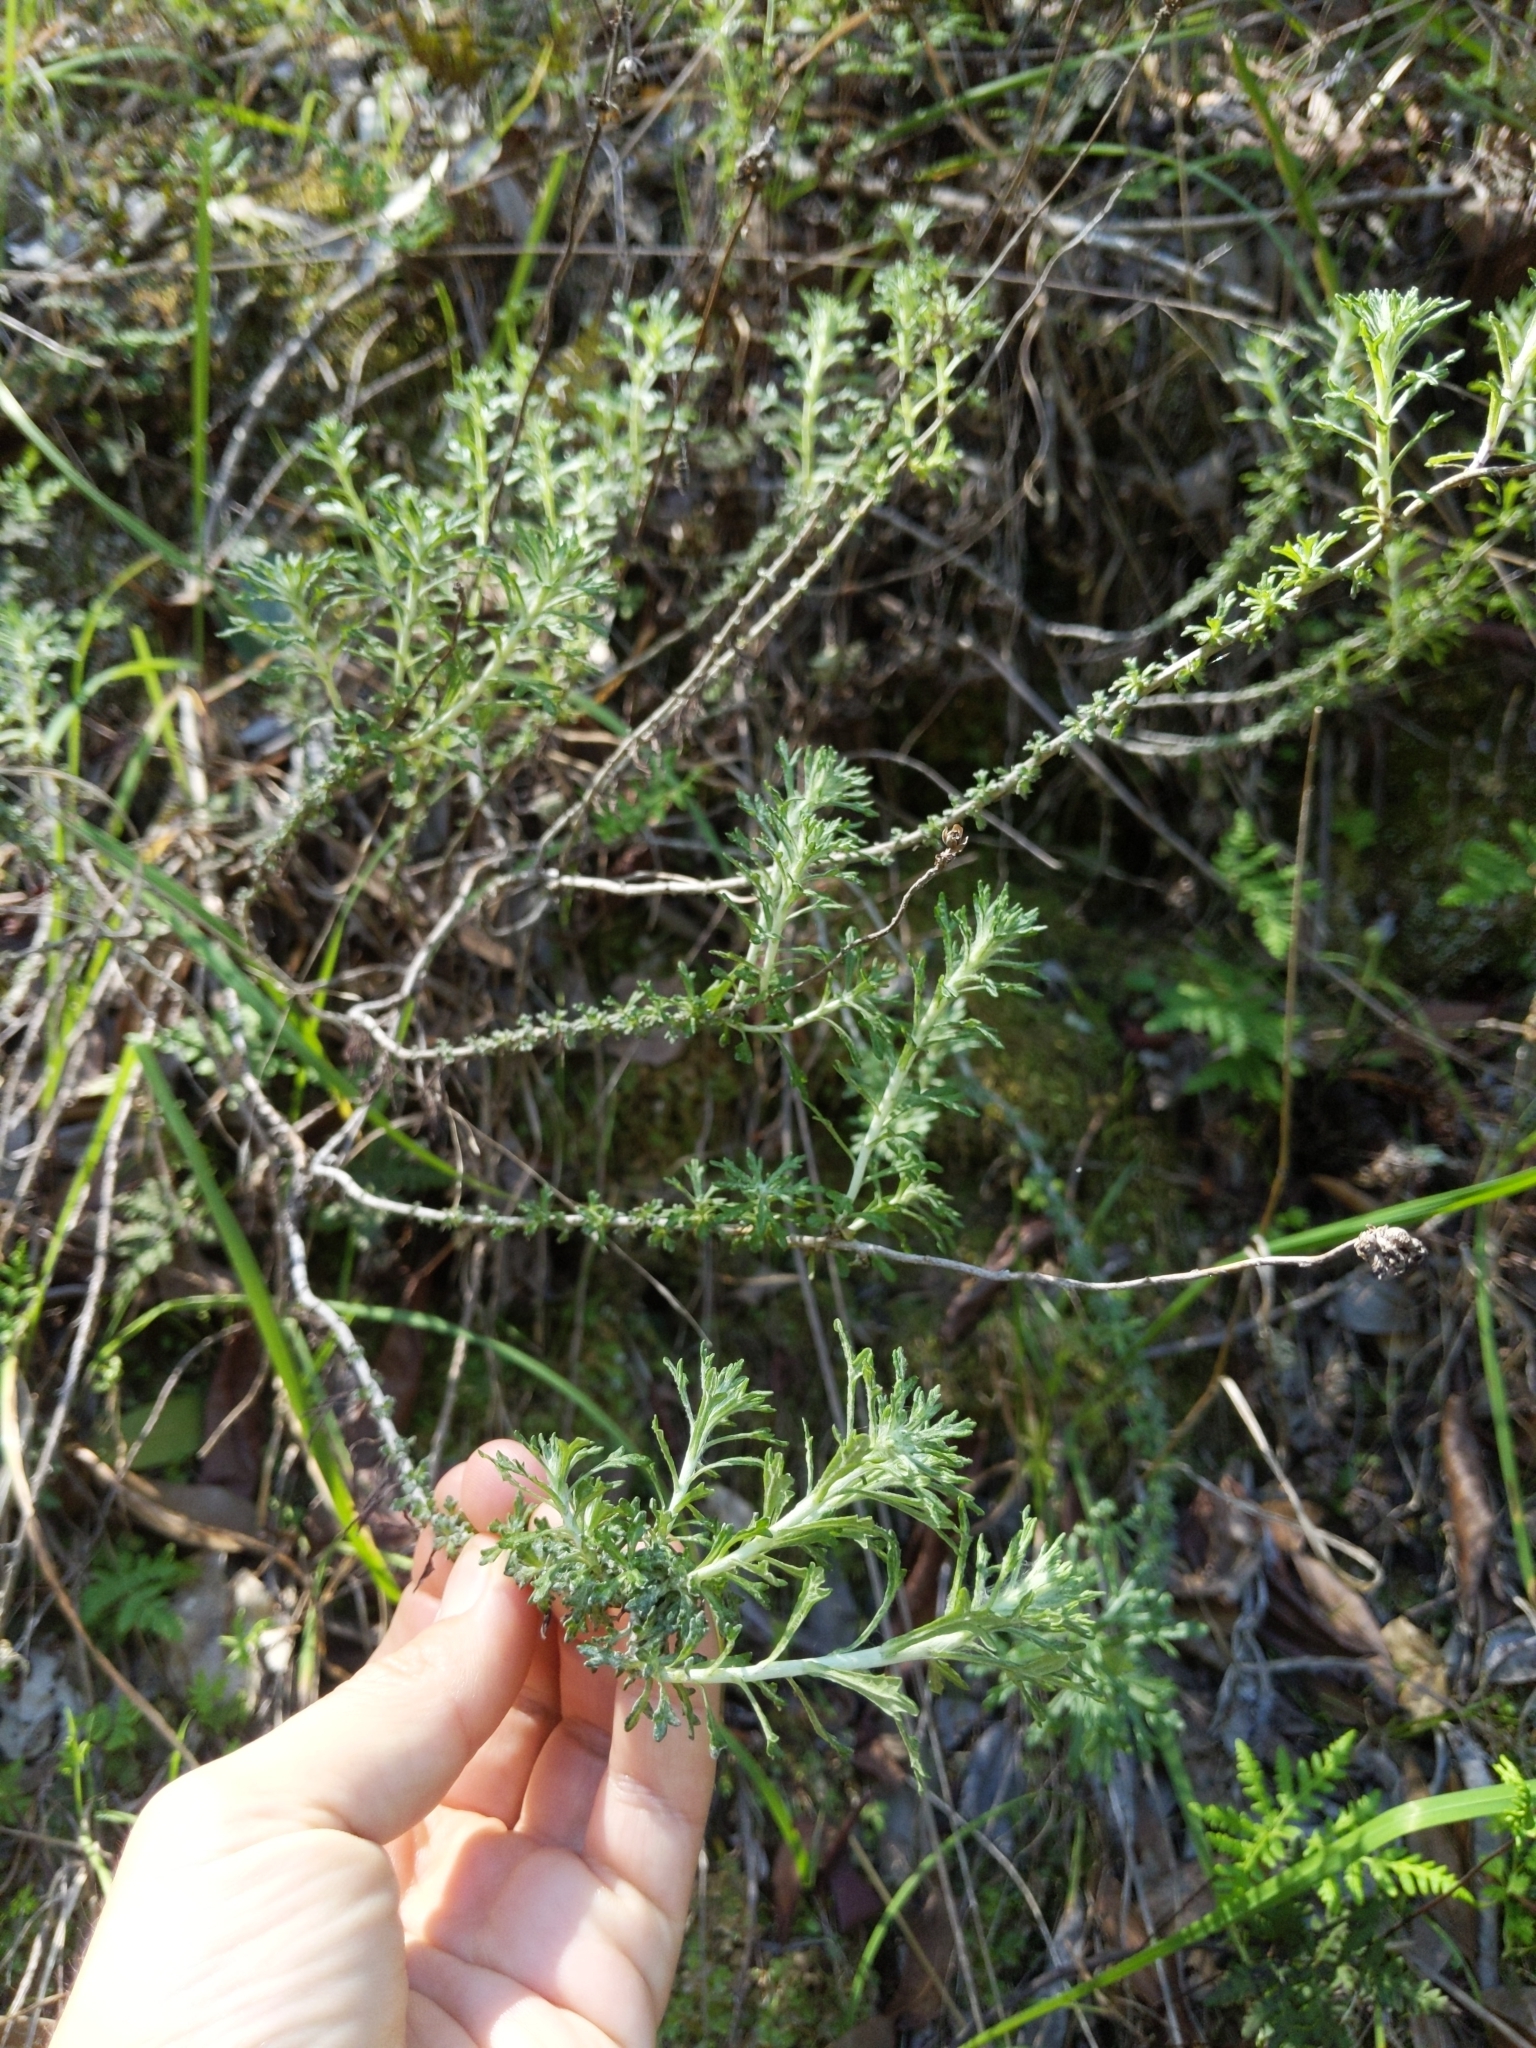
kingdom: Plantae
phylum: Tracheophyta
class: Magnoliopsida
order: Asterales
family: Asteraceae
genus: Eriophyllum
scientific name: Eriophyllum confertiflorum
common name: Golden-yarrow
